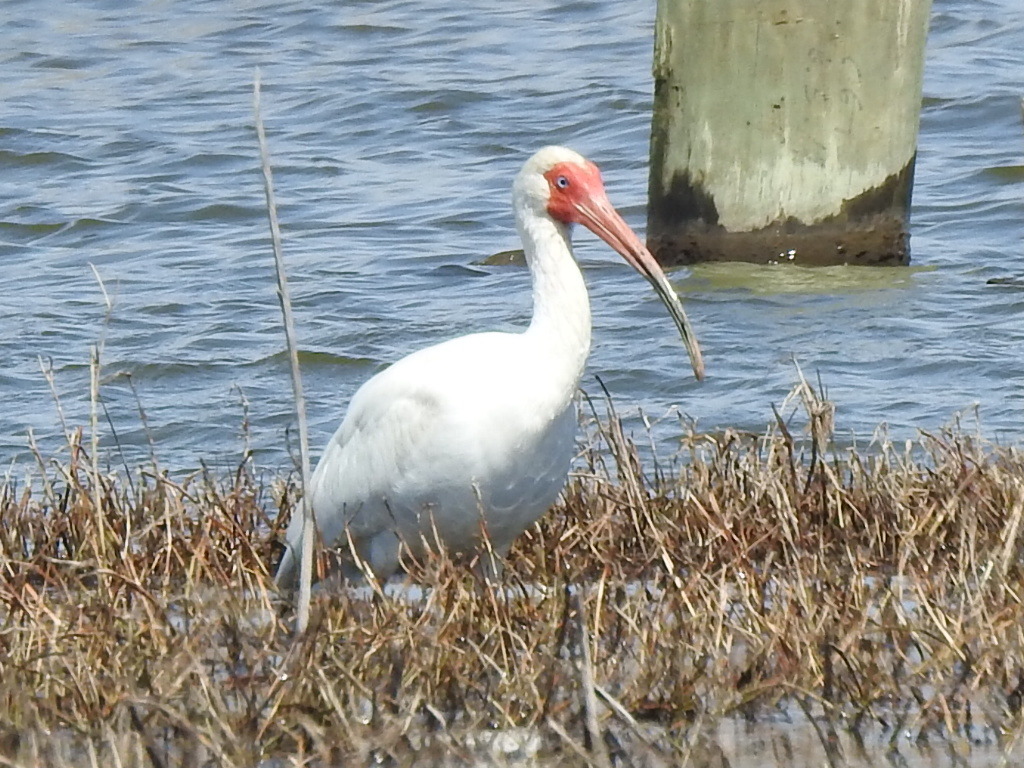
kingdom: Animalia
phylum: Chordata
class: Aves
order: Pelecaniformes
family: Threskiornithidae
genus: Eudocimus
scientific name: Eudocimus albus
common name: White ibis
